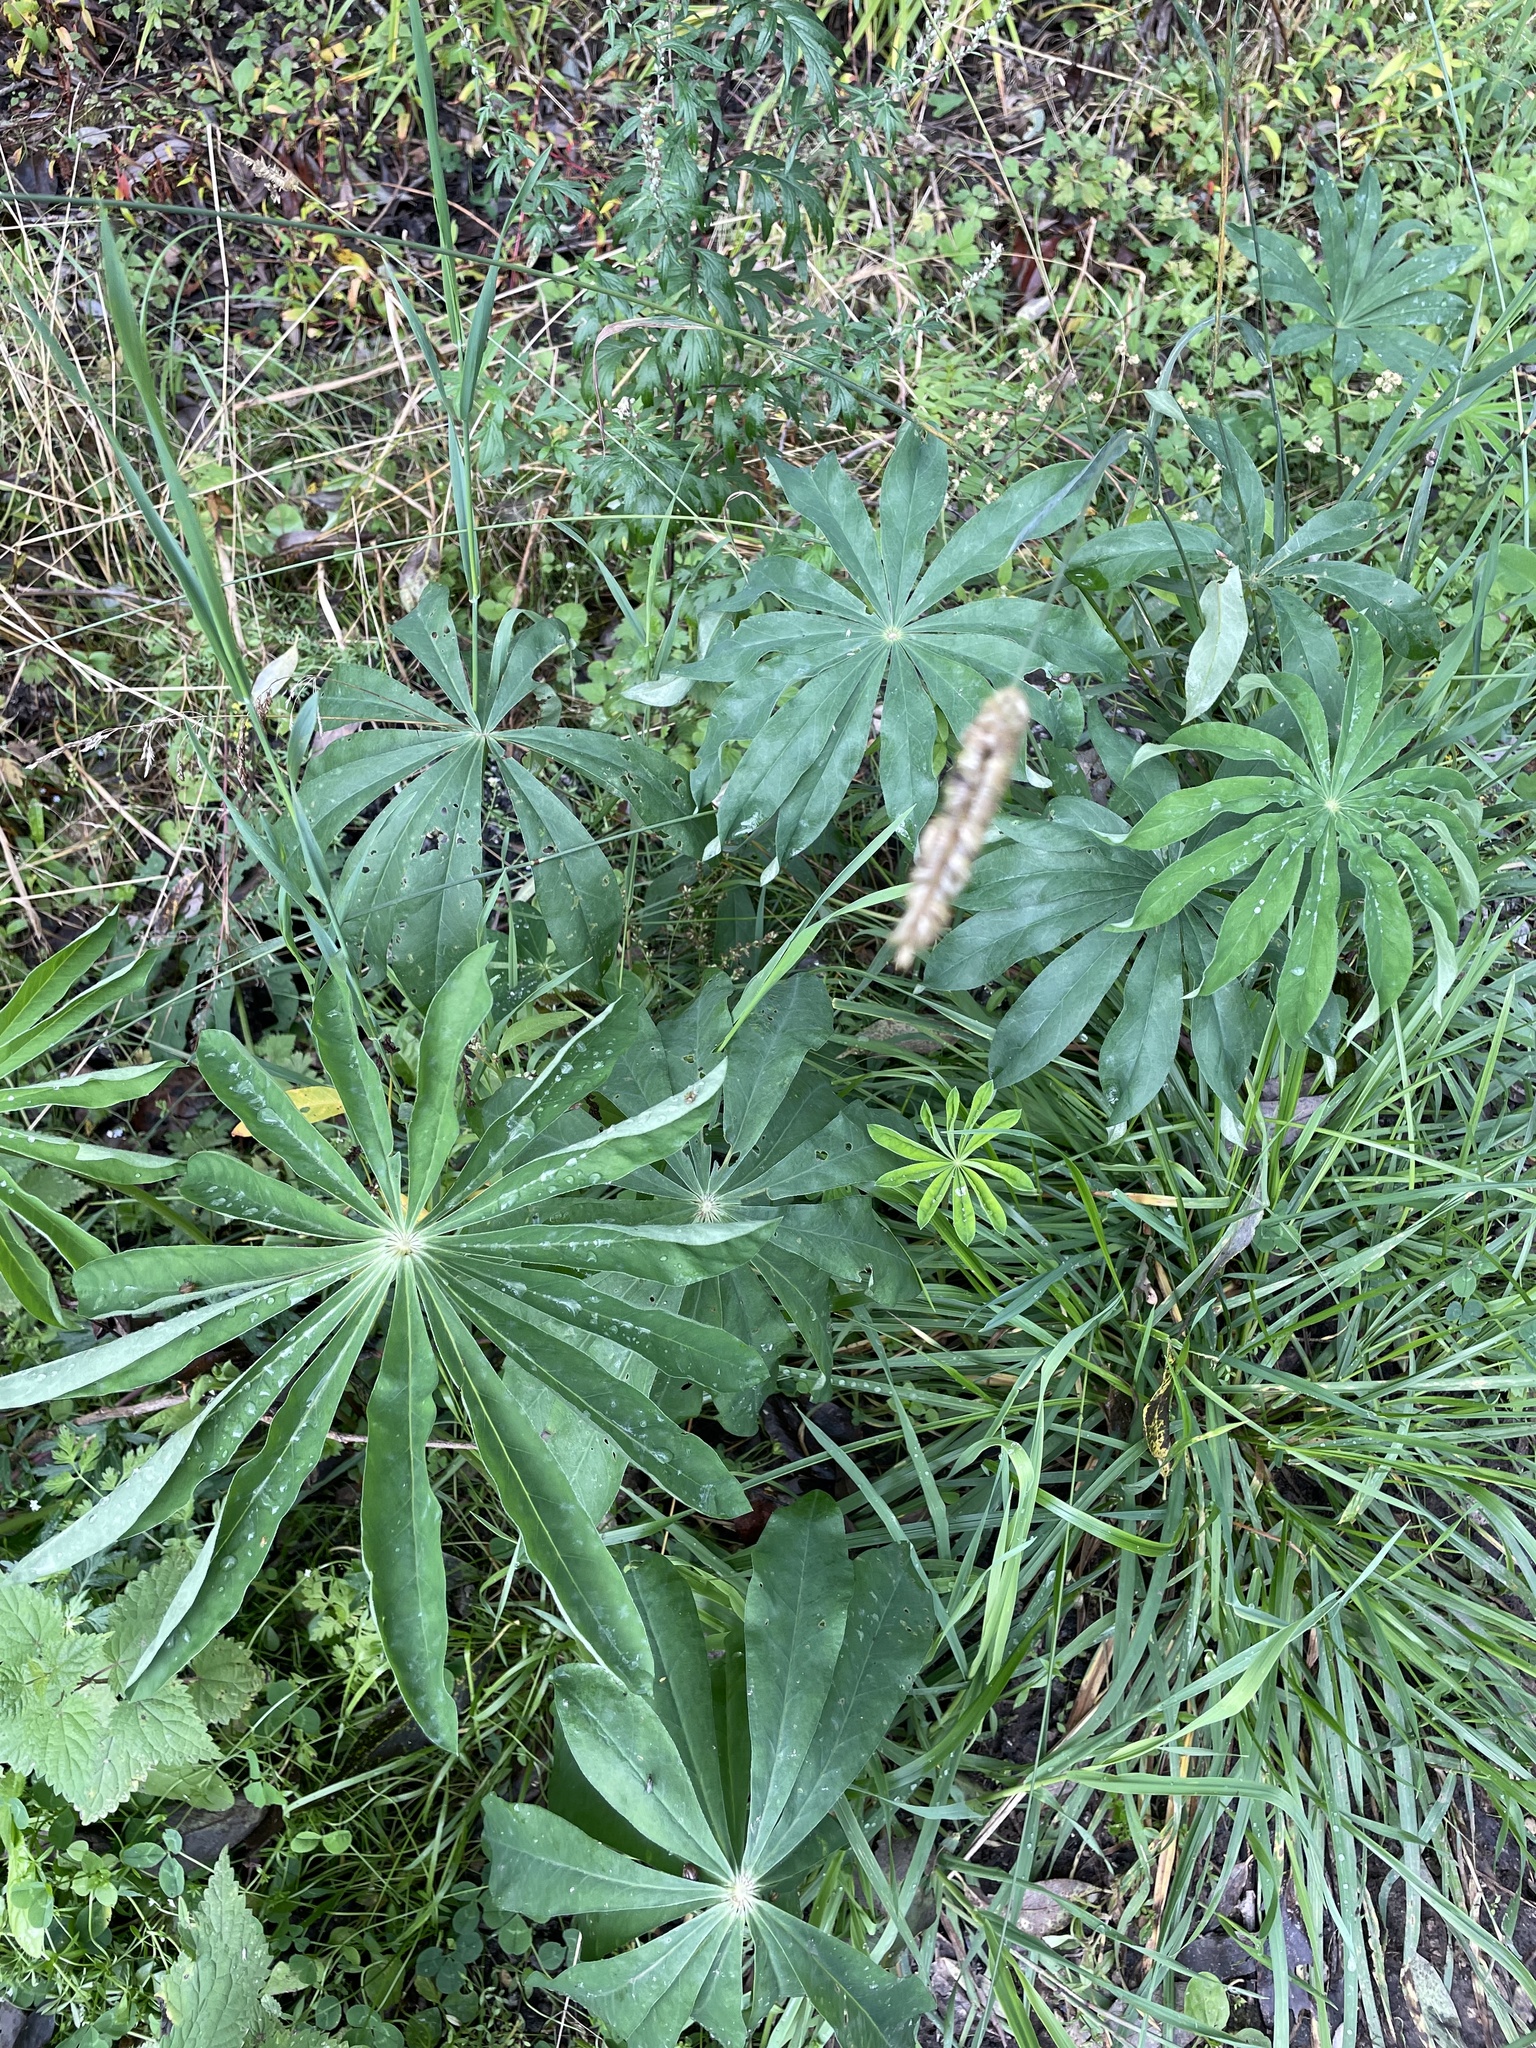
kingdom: Plantae
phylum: Tracheophyta
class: Magnoliopsida
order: Fabales
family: Fabaceae
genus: Lupinus
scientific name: Lupinus polyphyllus
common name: Garden lupin
